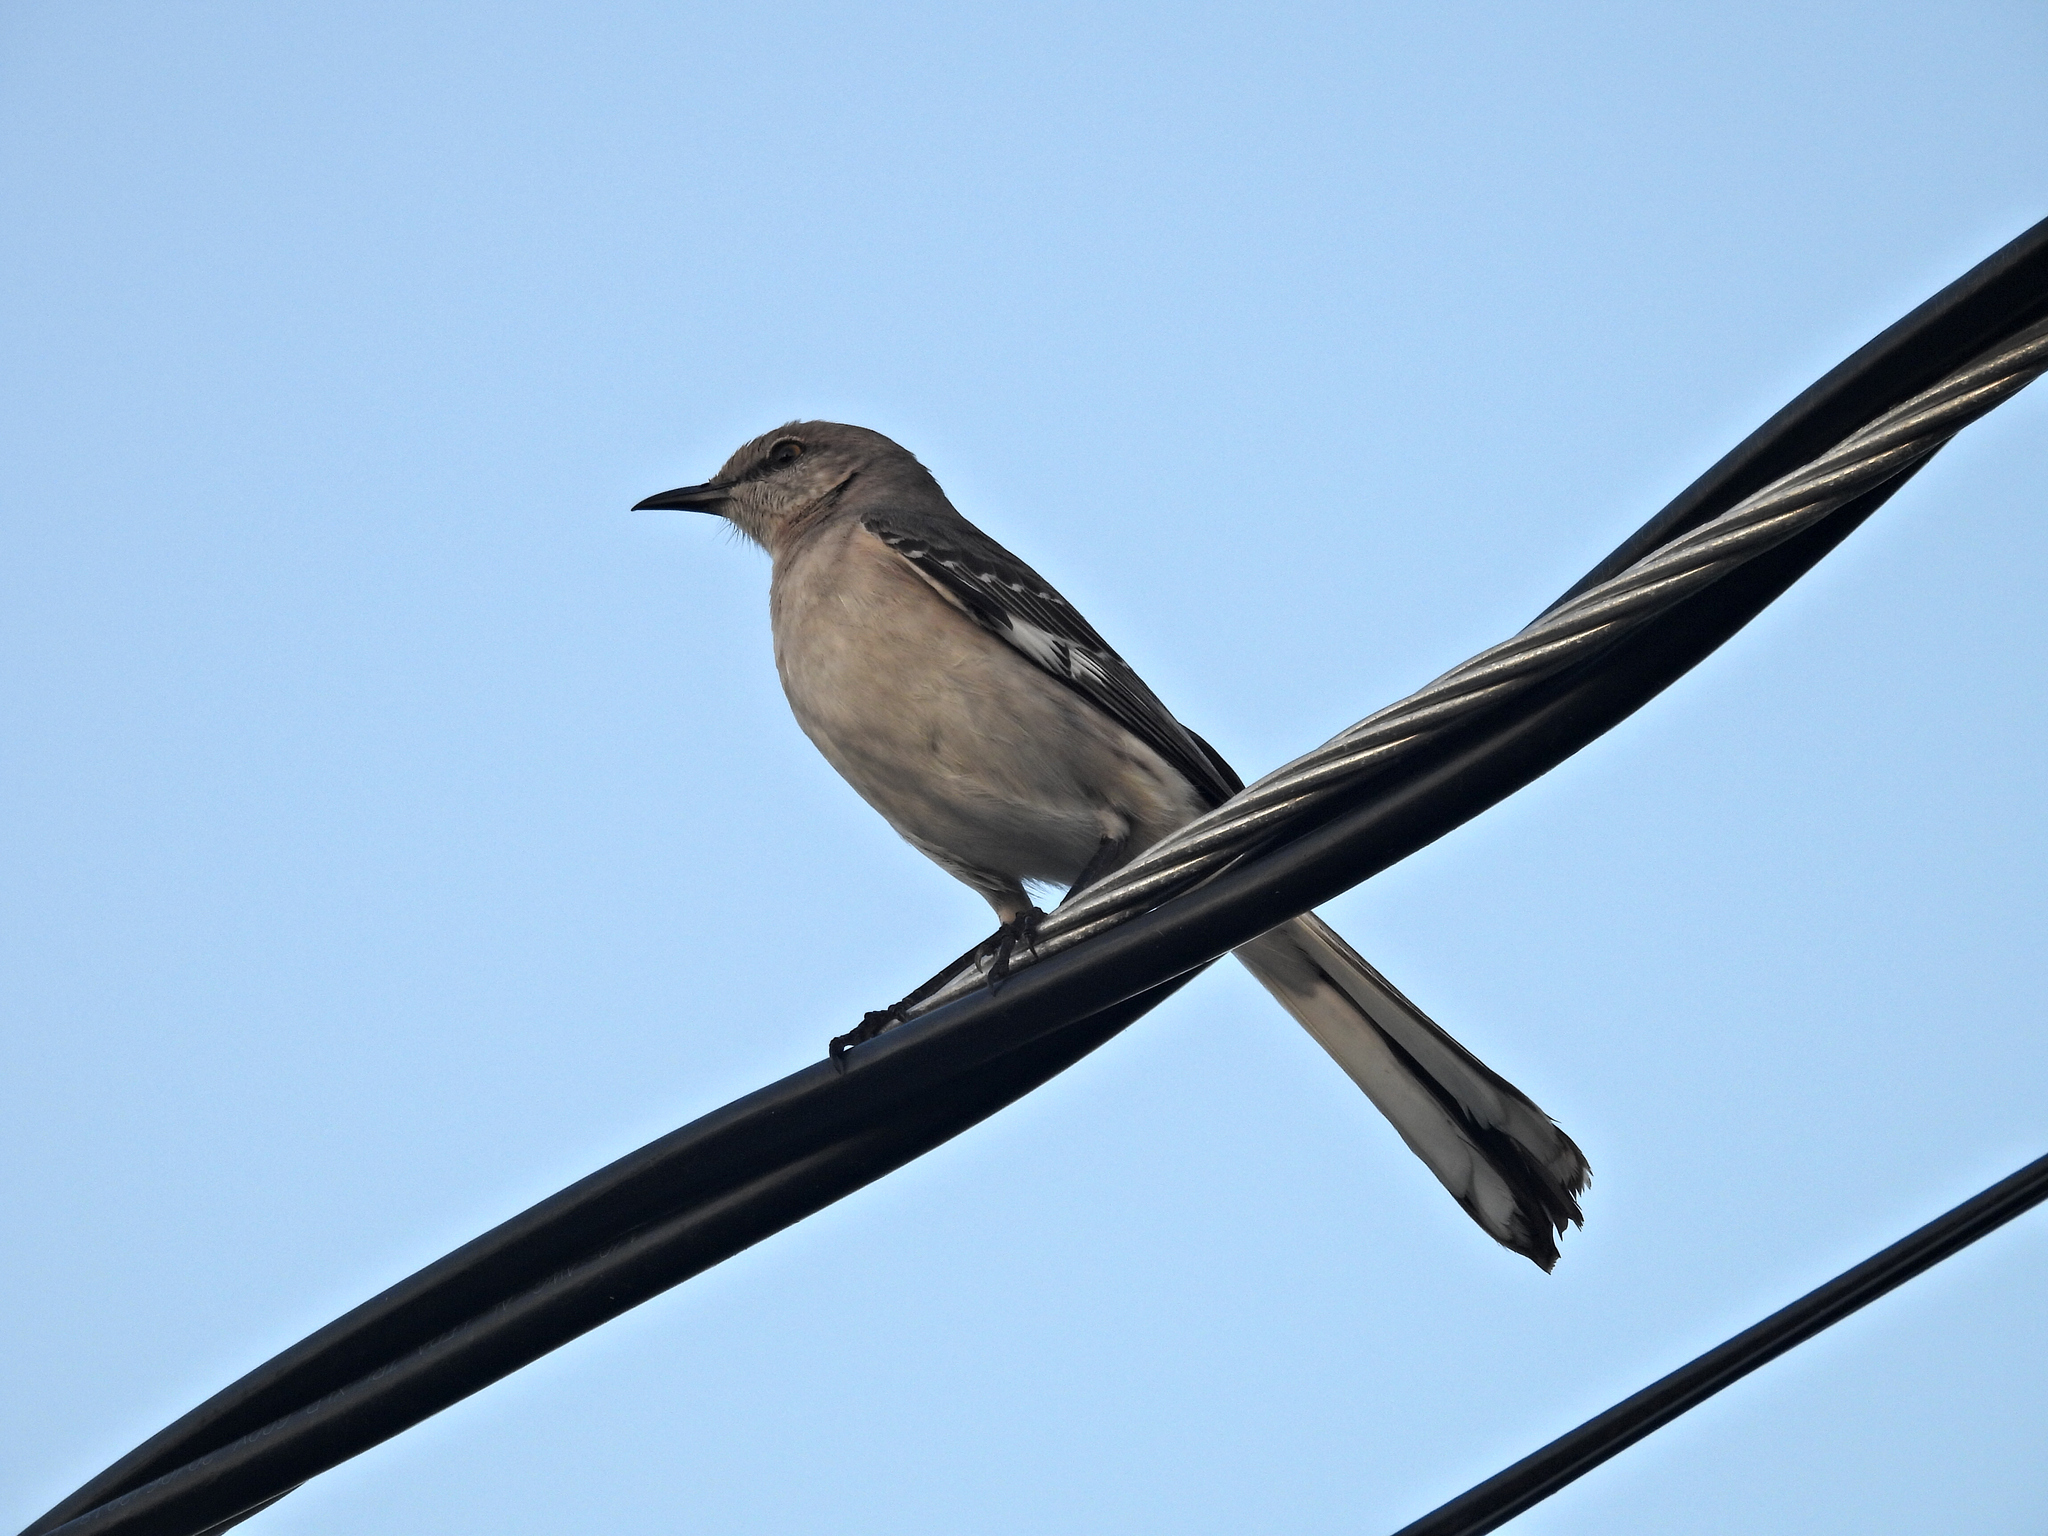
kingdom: Animalia
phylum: Chordata
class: Aves
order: Passeriformes
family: Mimidae
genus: Mimus
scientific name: Mimus polyglottos
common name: Northern mockingbird
